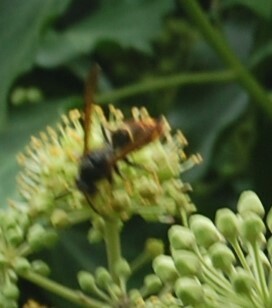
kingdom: Animalia
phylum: Arthropoda
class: Insecta
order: Hymenoptera
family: Vespidae
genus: Vespa
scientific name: Vespa velutina
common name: Asian hornet
